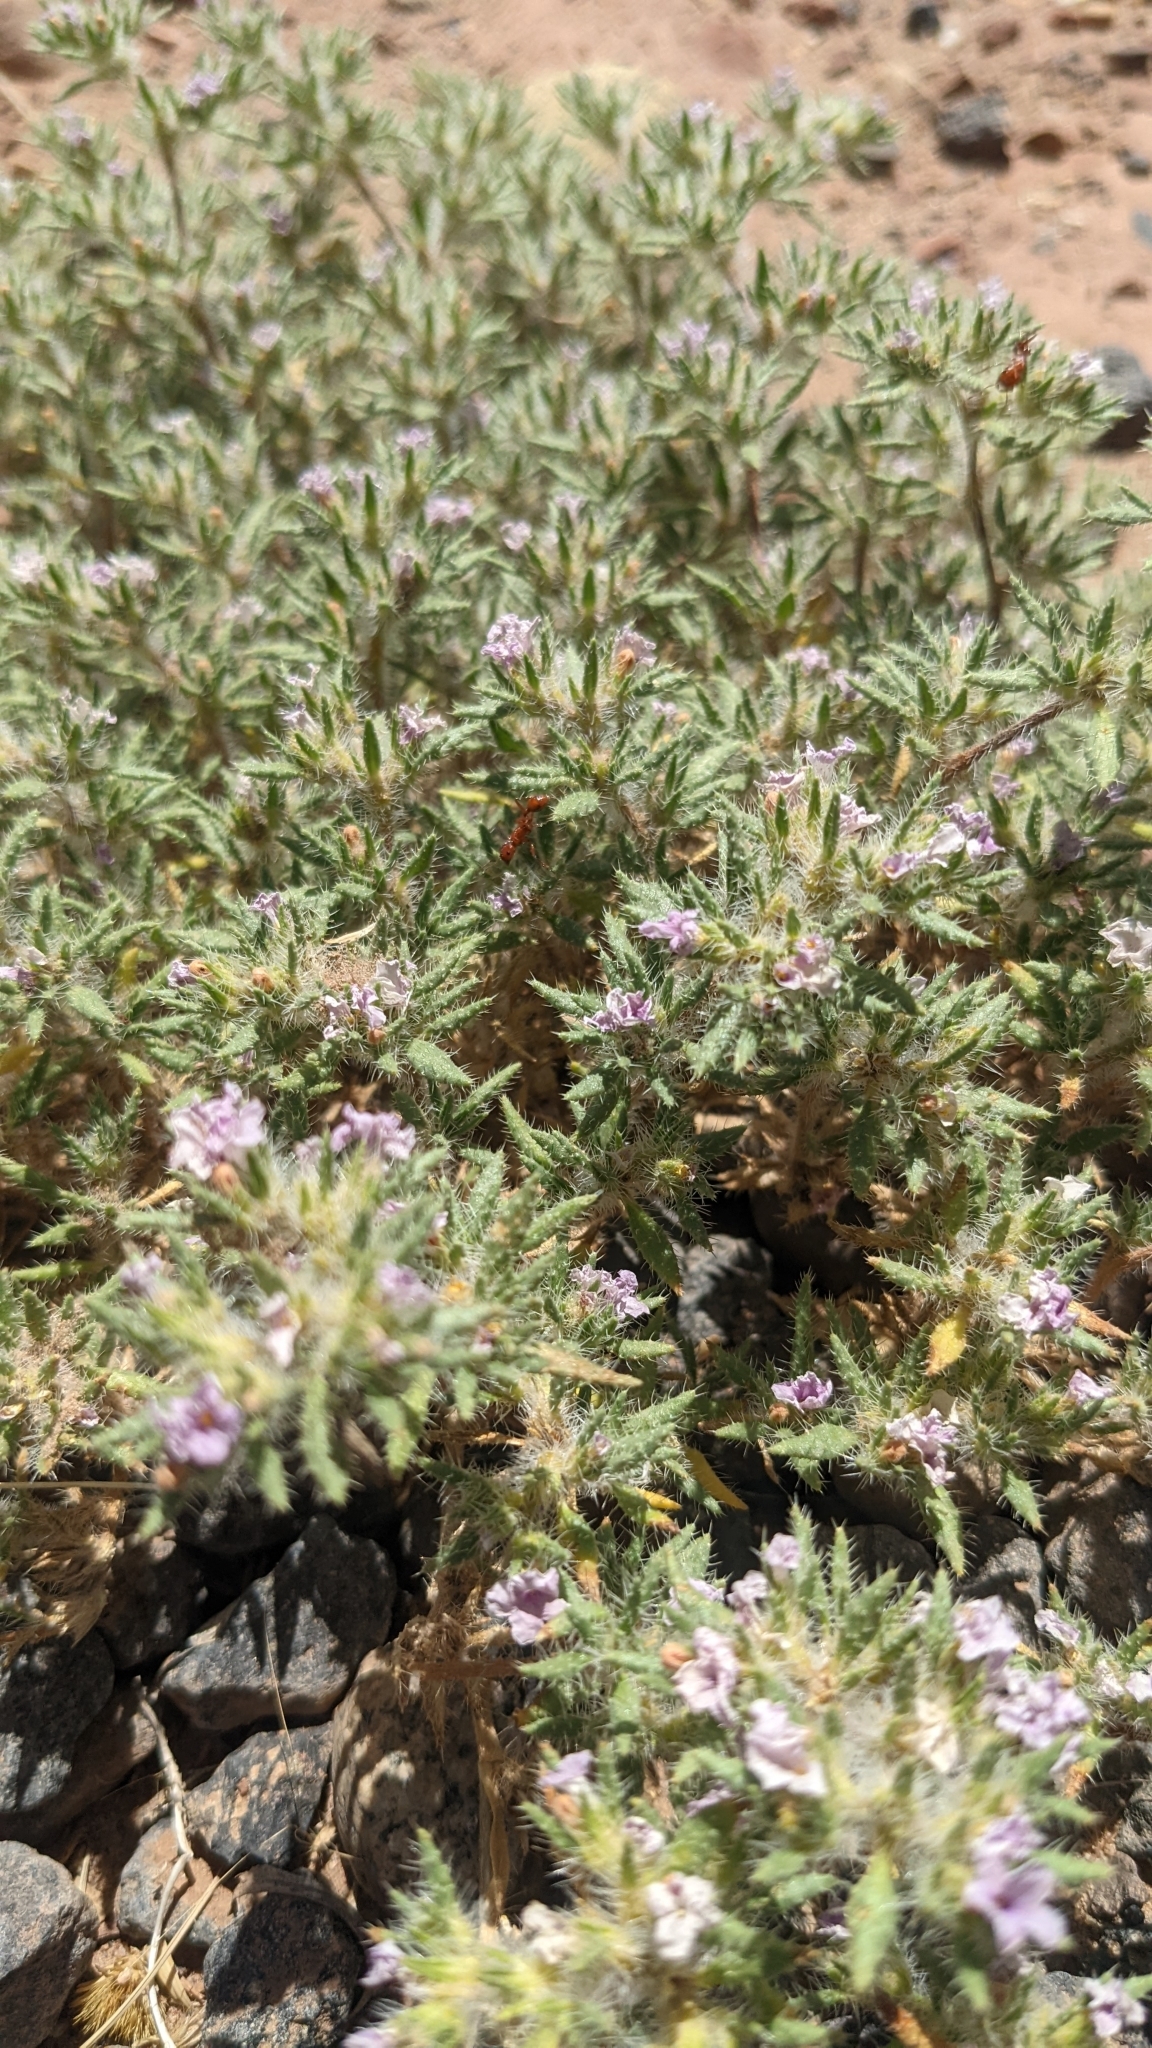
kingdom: Plantae
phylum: Tracheophyta
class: Magnoliopsida
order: Boraginales
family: Ehretiaceae
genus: Tiquilia
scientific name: Tiquilia latior
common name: Matted tiquilia
